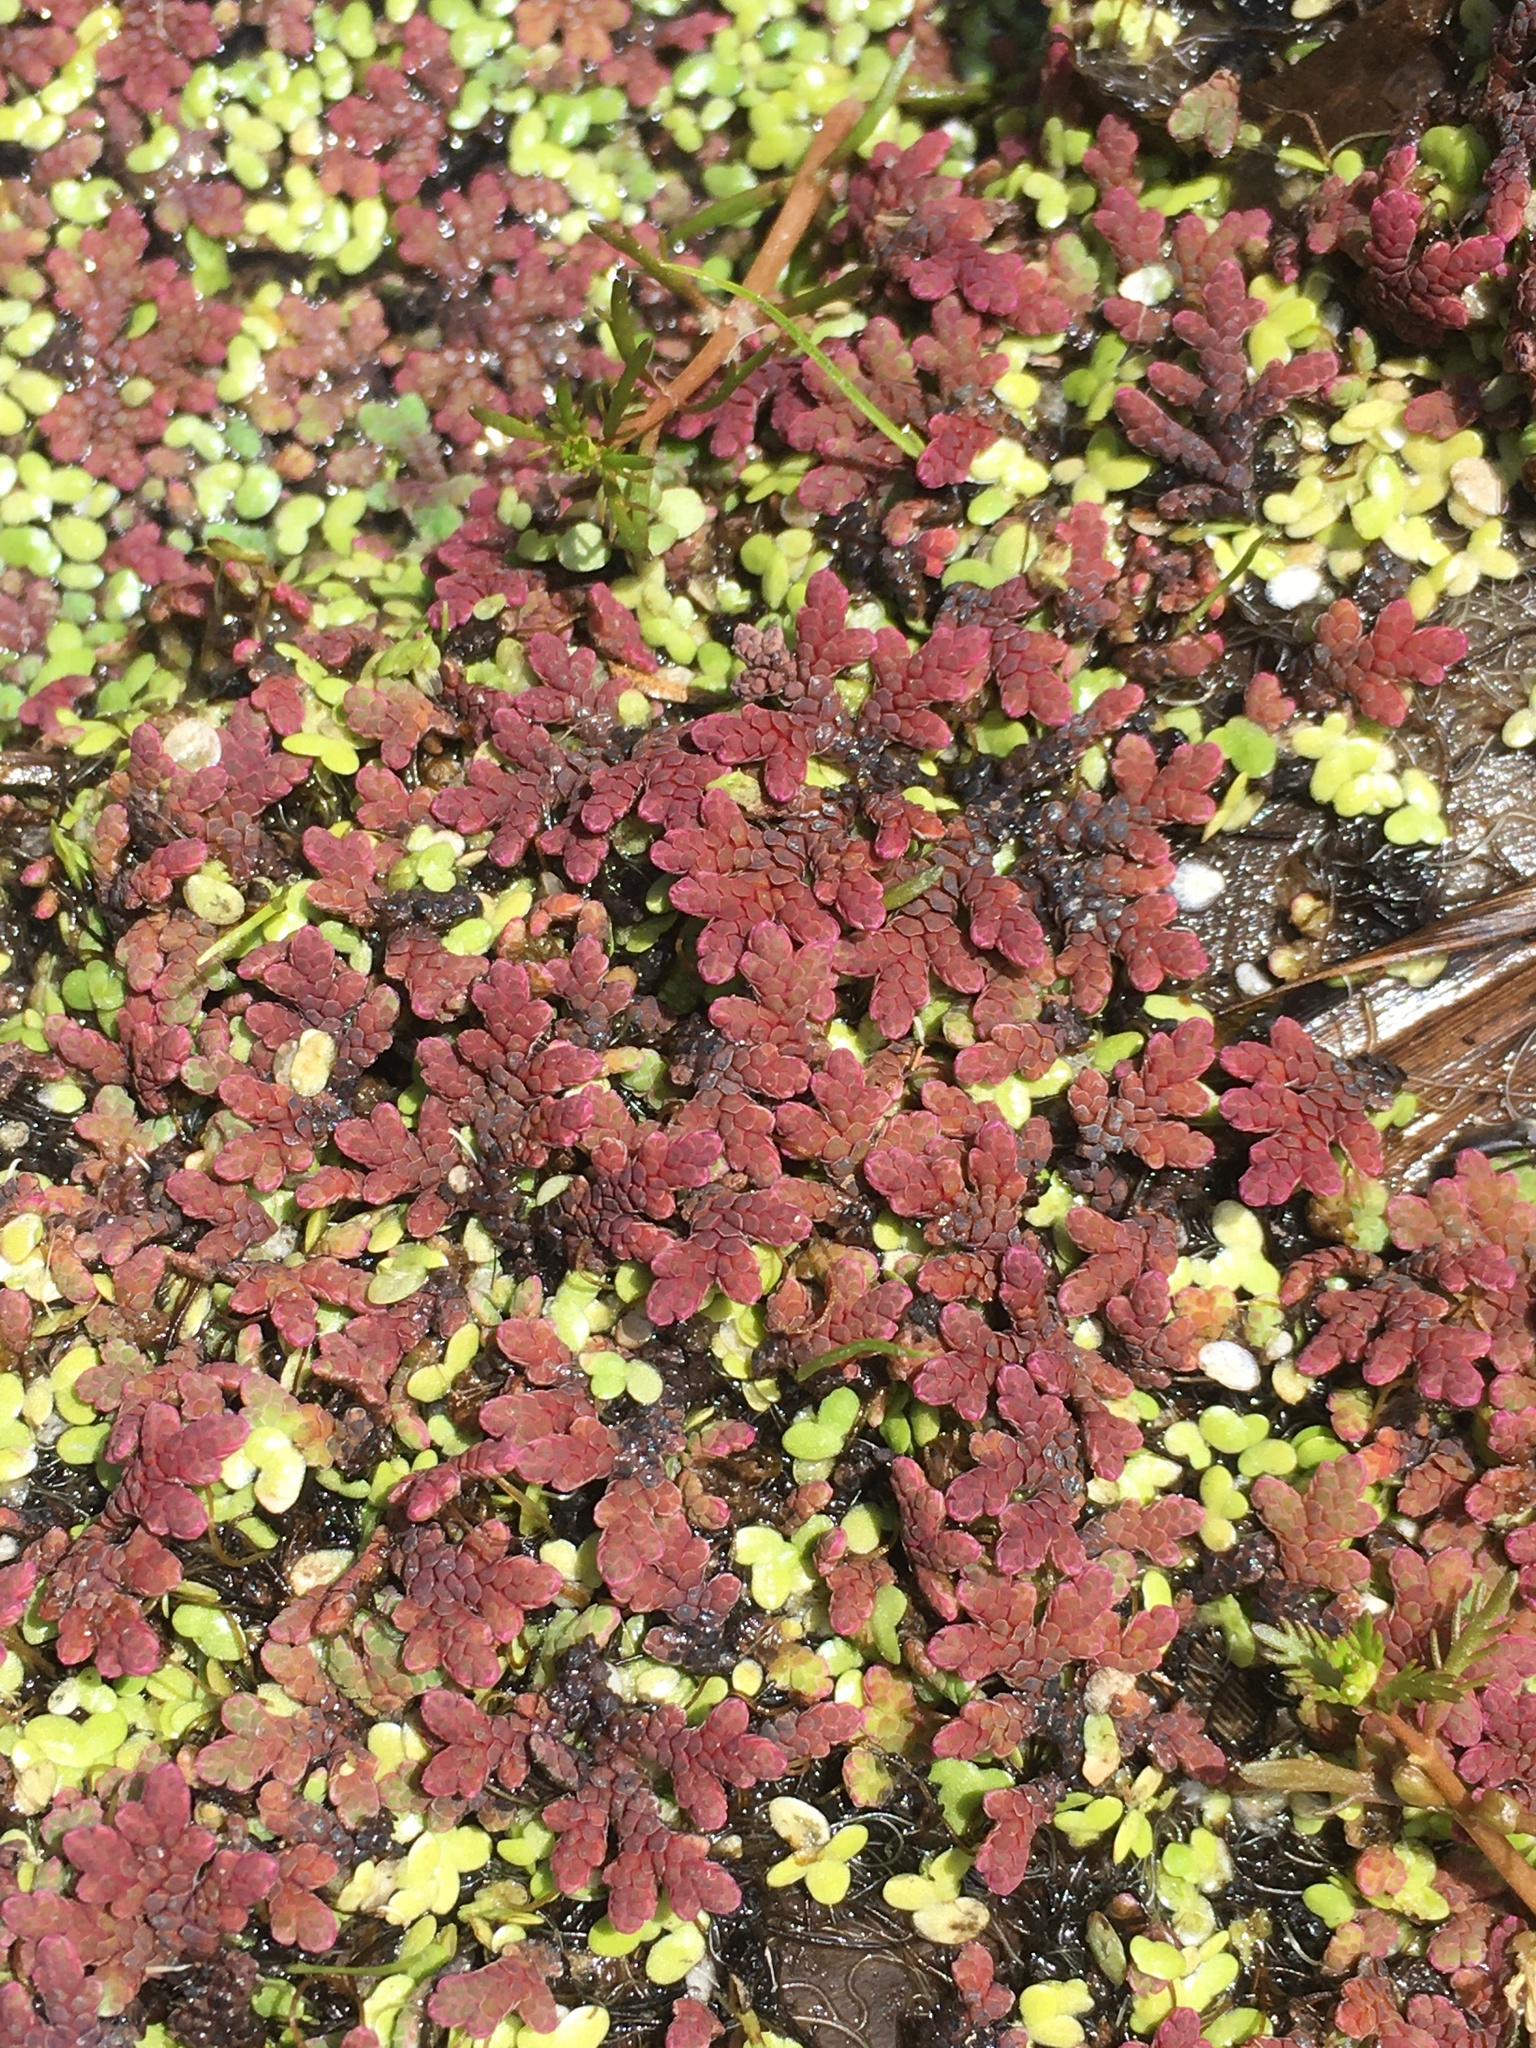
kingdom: Plantae
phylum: Tracheophyta
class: Polypodiopsida
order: Salviniales
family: Salviniaceae
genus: Azolla
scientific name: Azolla rubra
